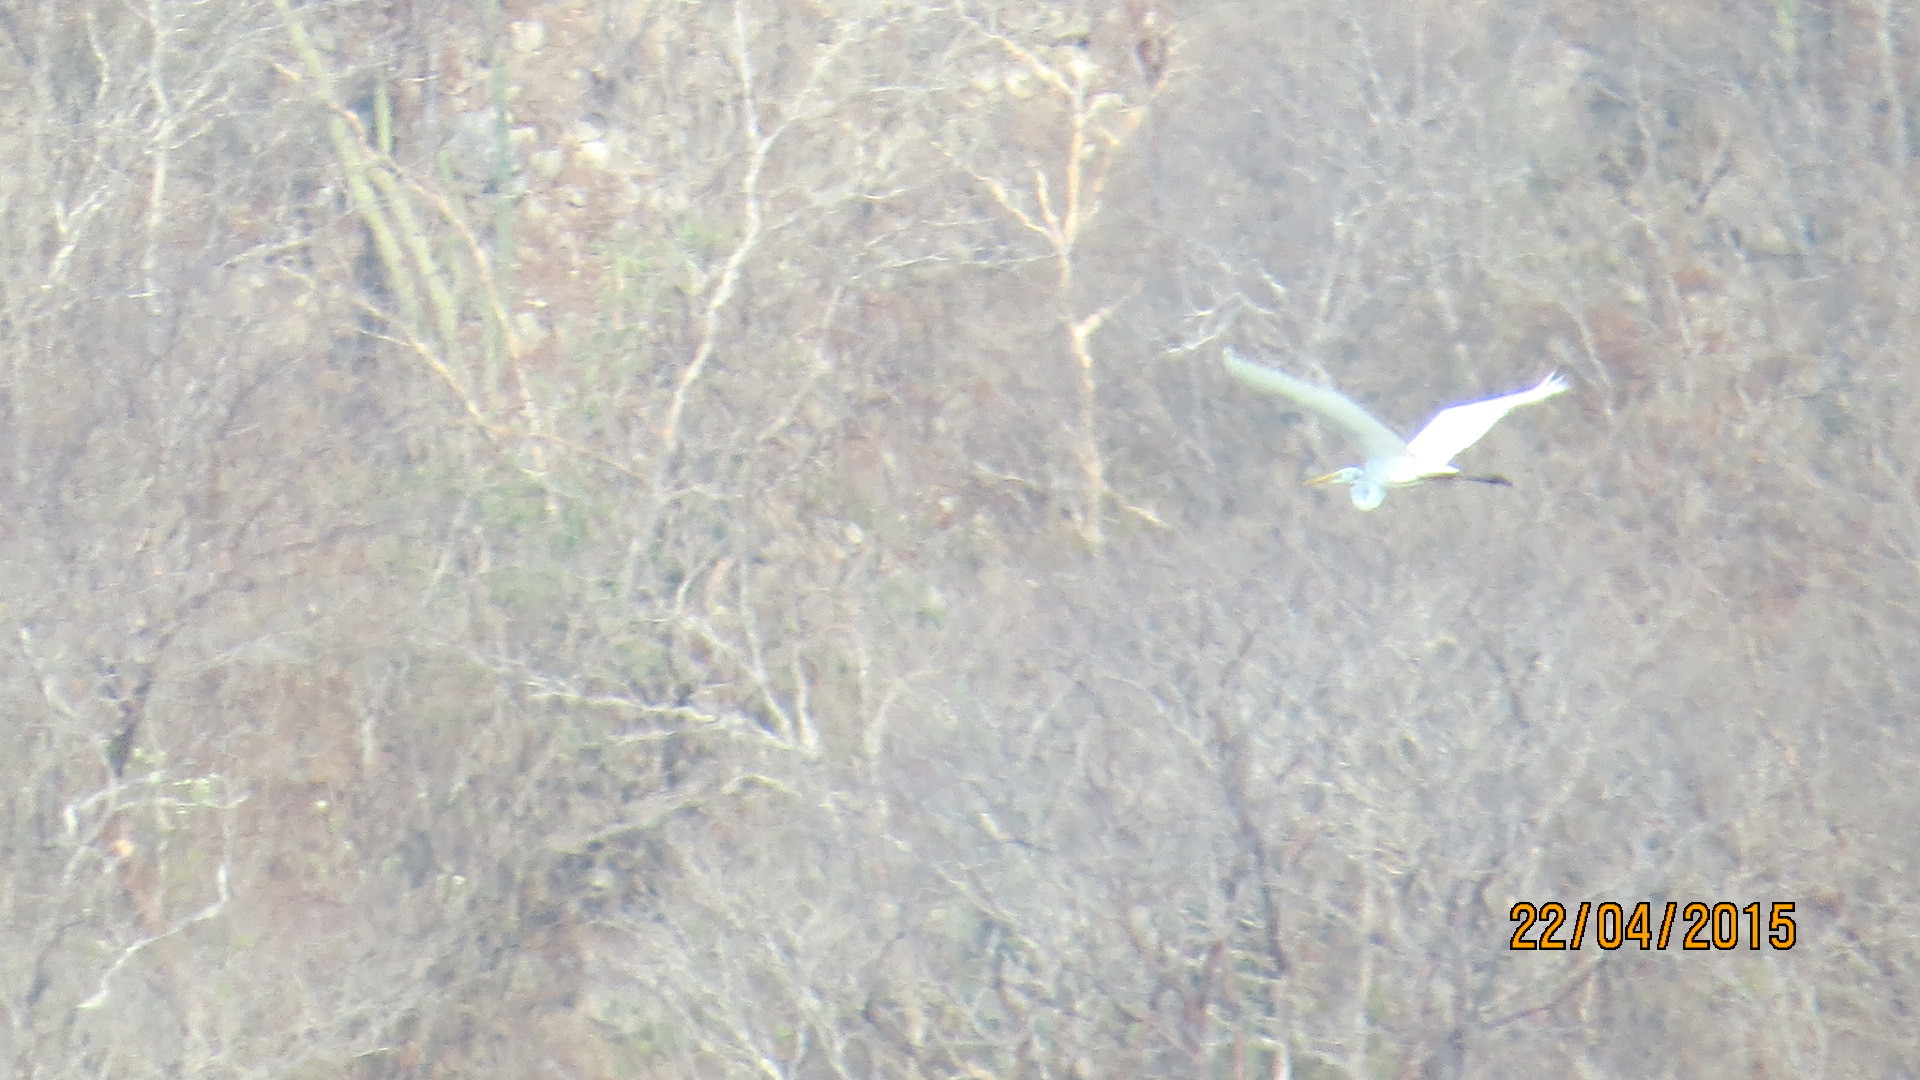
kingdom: Animalia
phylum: Chordata
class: Aves
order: Pelecaniformes
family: Ardeidae
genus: Ardea
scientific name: Ardea alba
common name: Great egret
